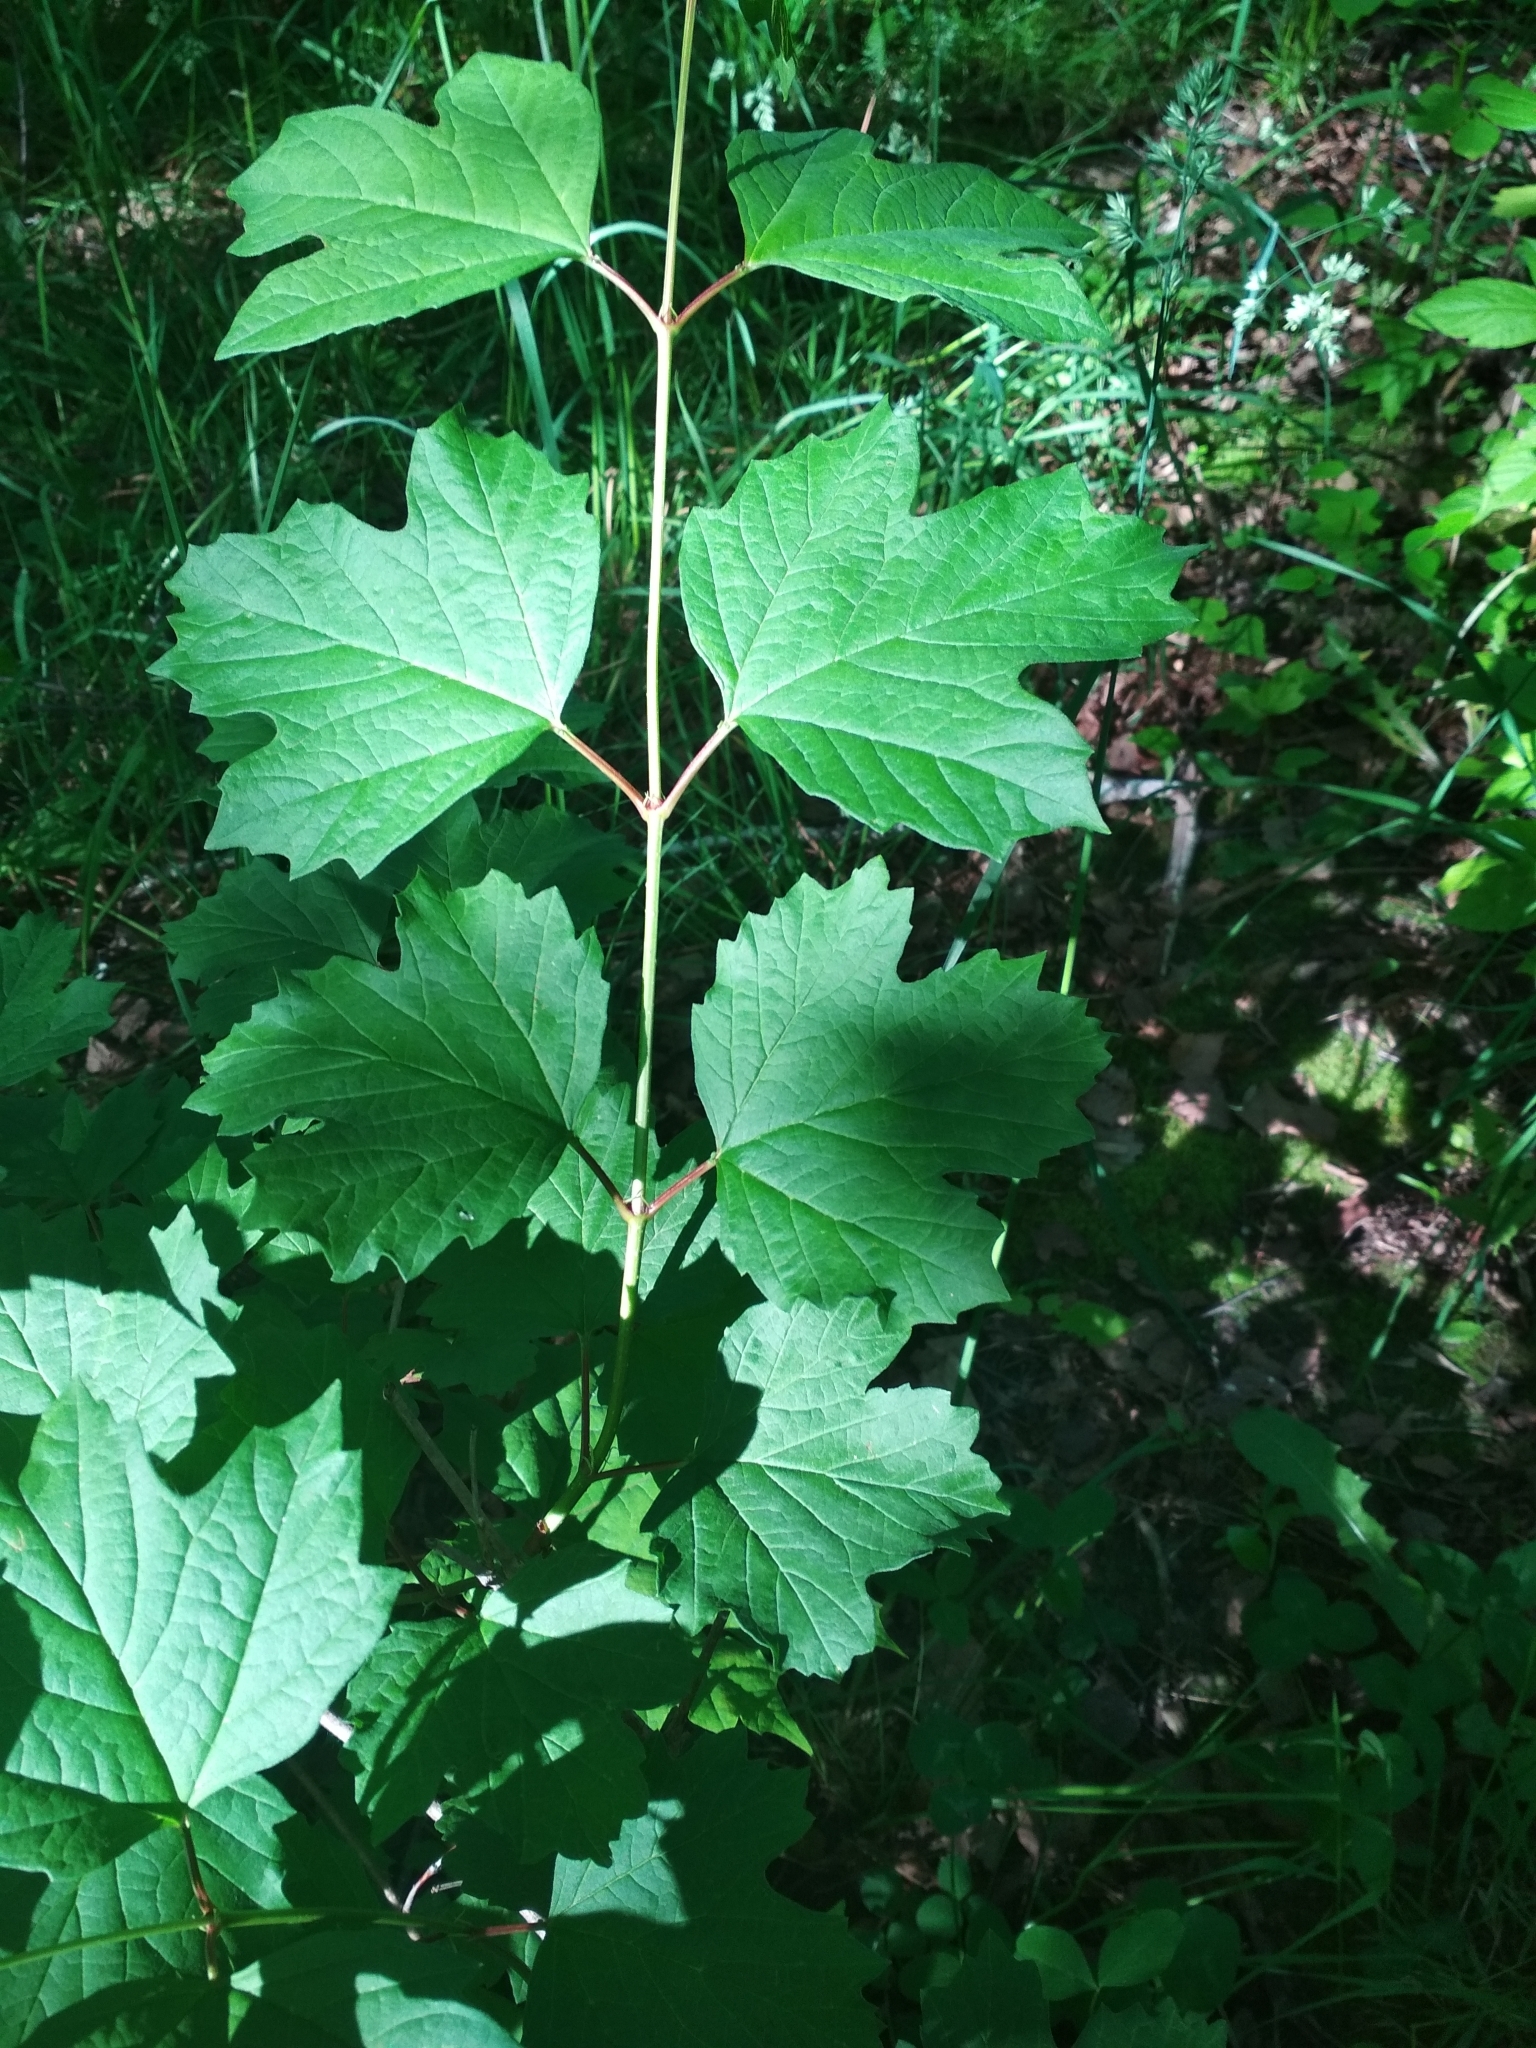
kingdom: Plantae
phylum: Tracheophyta
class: Magnoliopsida
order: Dipsacales
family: Viburnaceae
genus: Viburnum
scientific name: Viburnum opulus
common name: Guelder-rose
